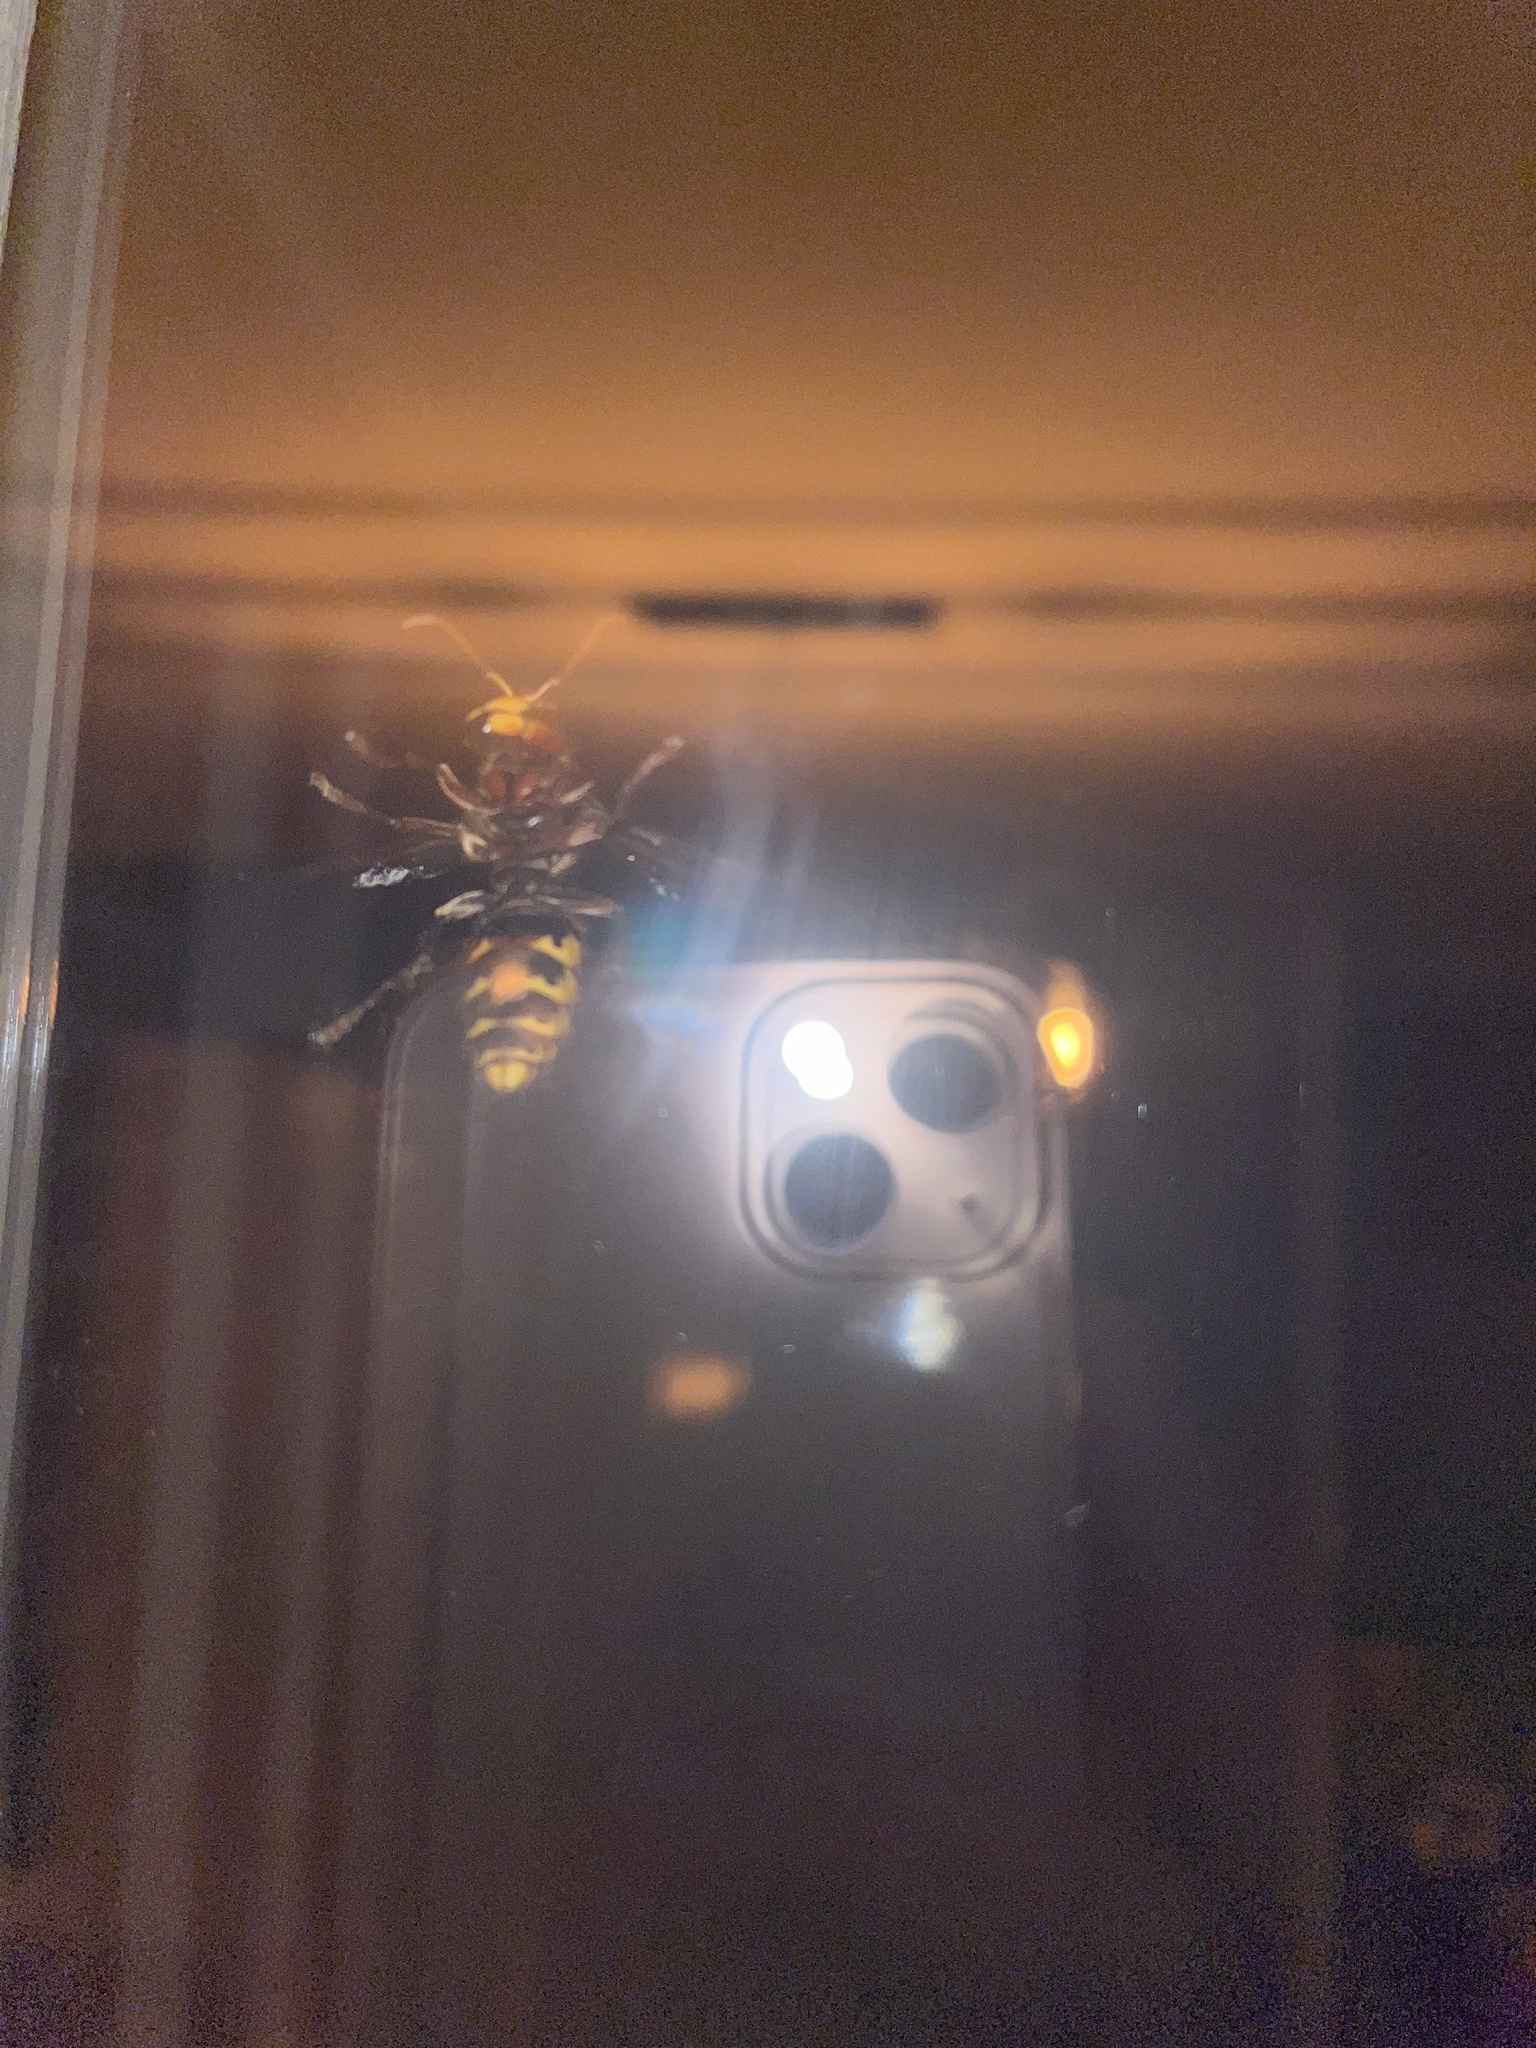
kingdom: Animalia
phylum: Arthropoda
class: Insecta
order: Hymenoptera
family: Vespidae
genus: Vespa
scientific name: Vespa crabro
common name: Hornet
